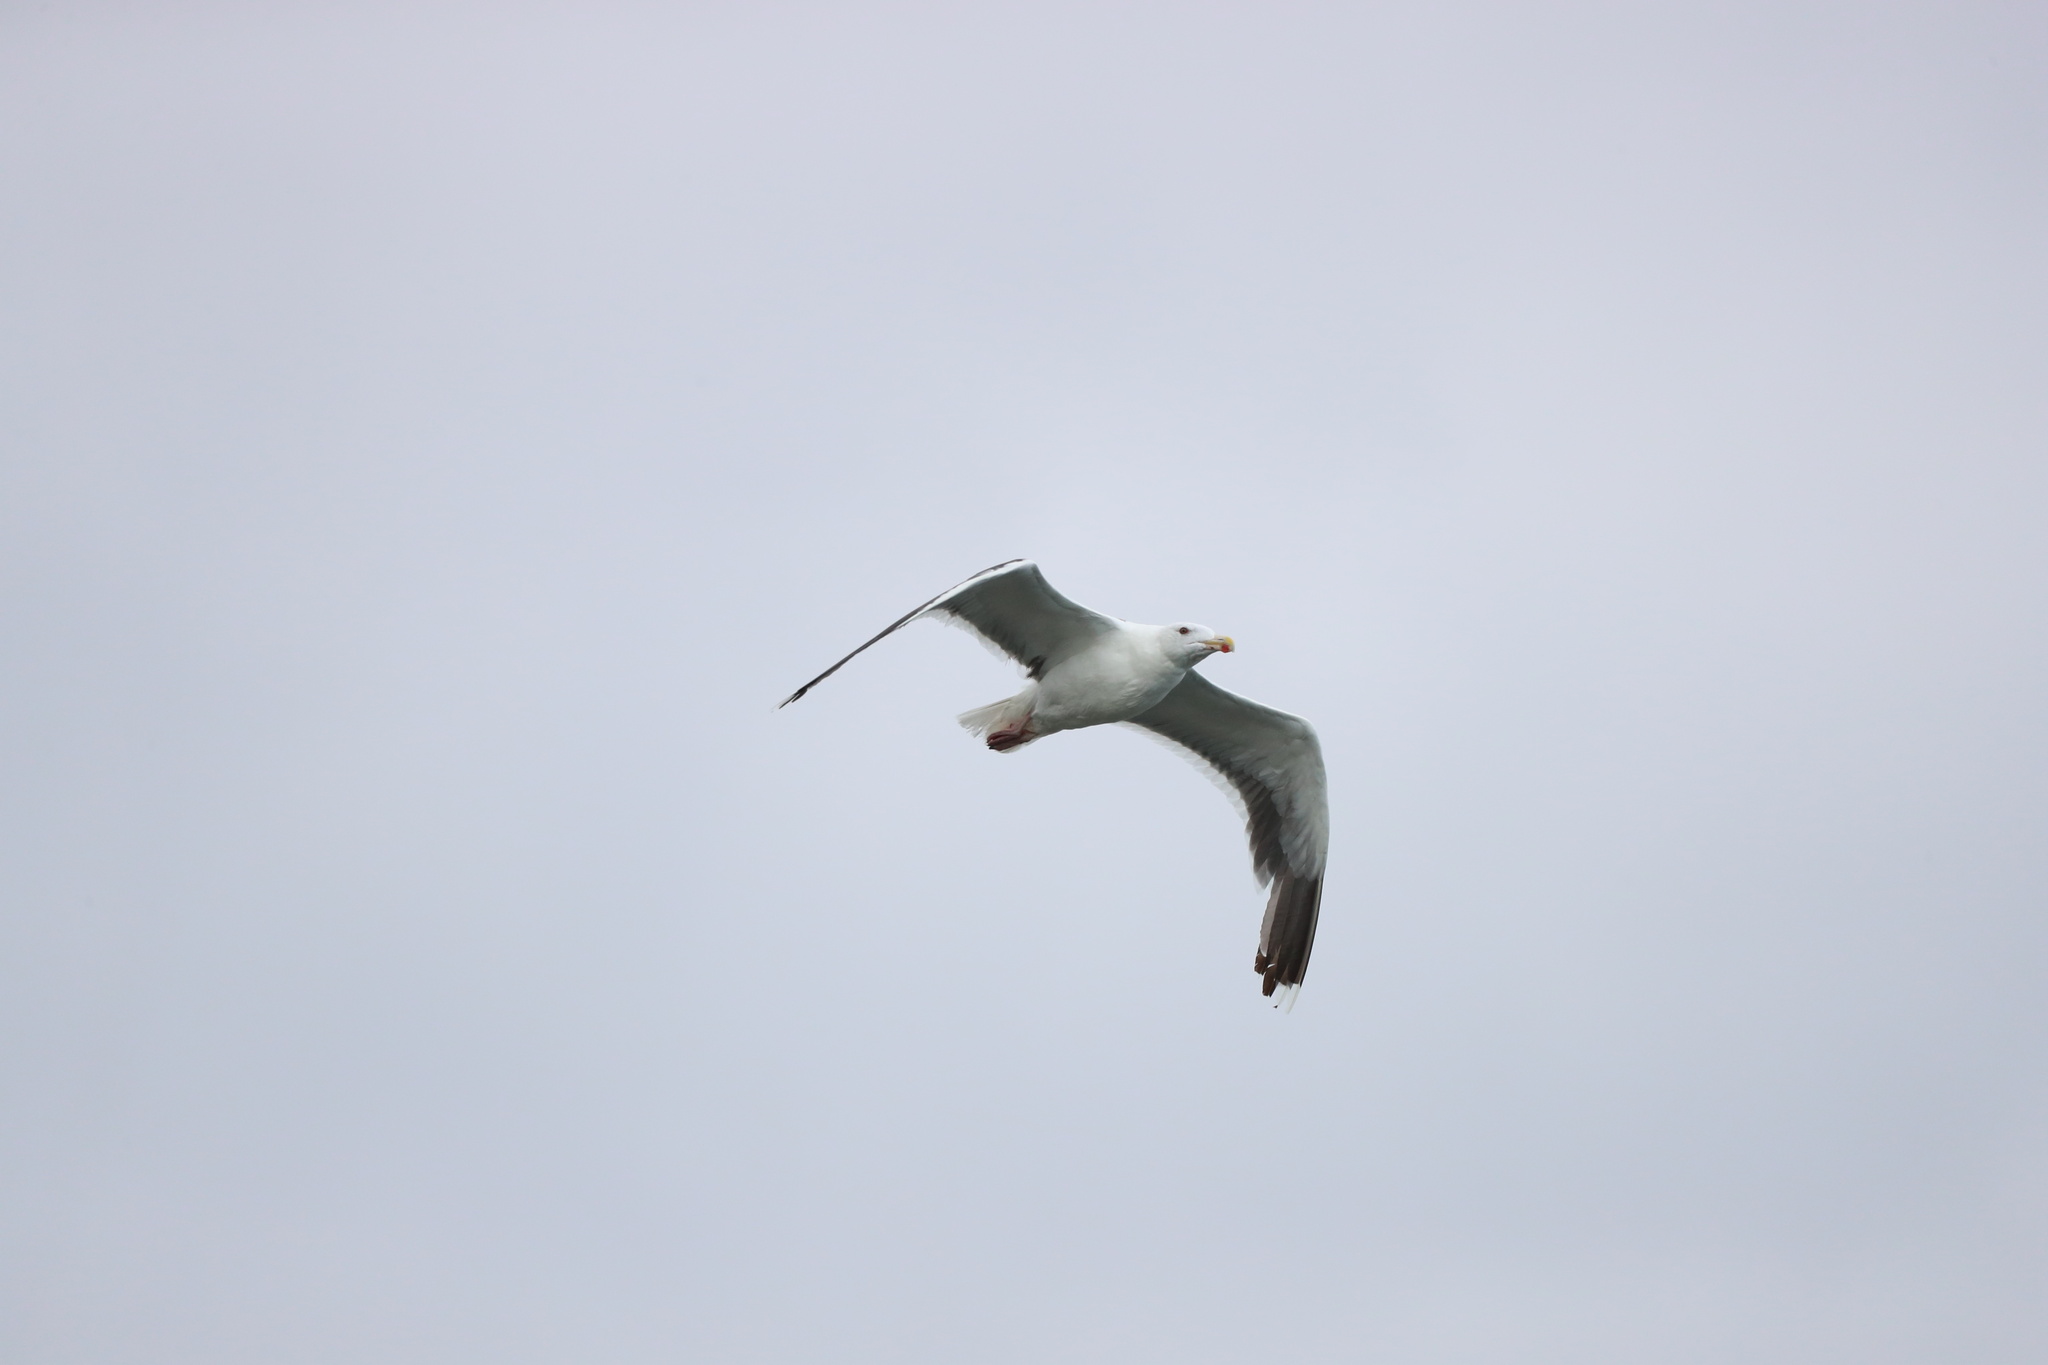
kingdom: Animalia
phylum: Chordata
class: Aves
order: Charadriiformes
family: Laridae
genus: Larus
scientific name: Larus marinus
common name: Great black-backed gull
